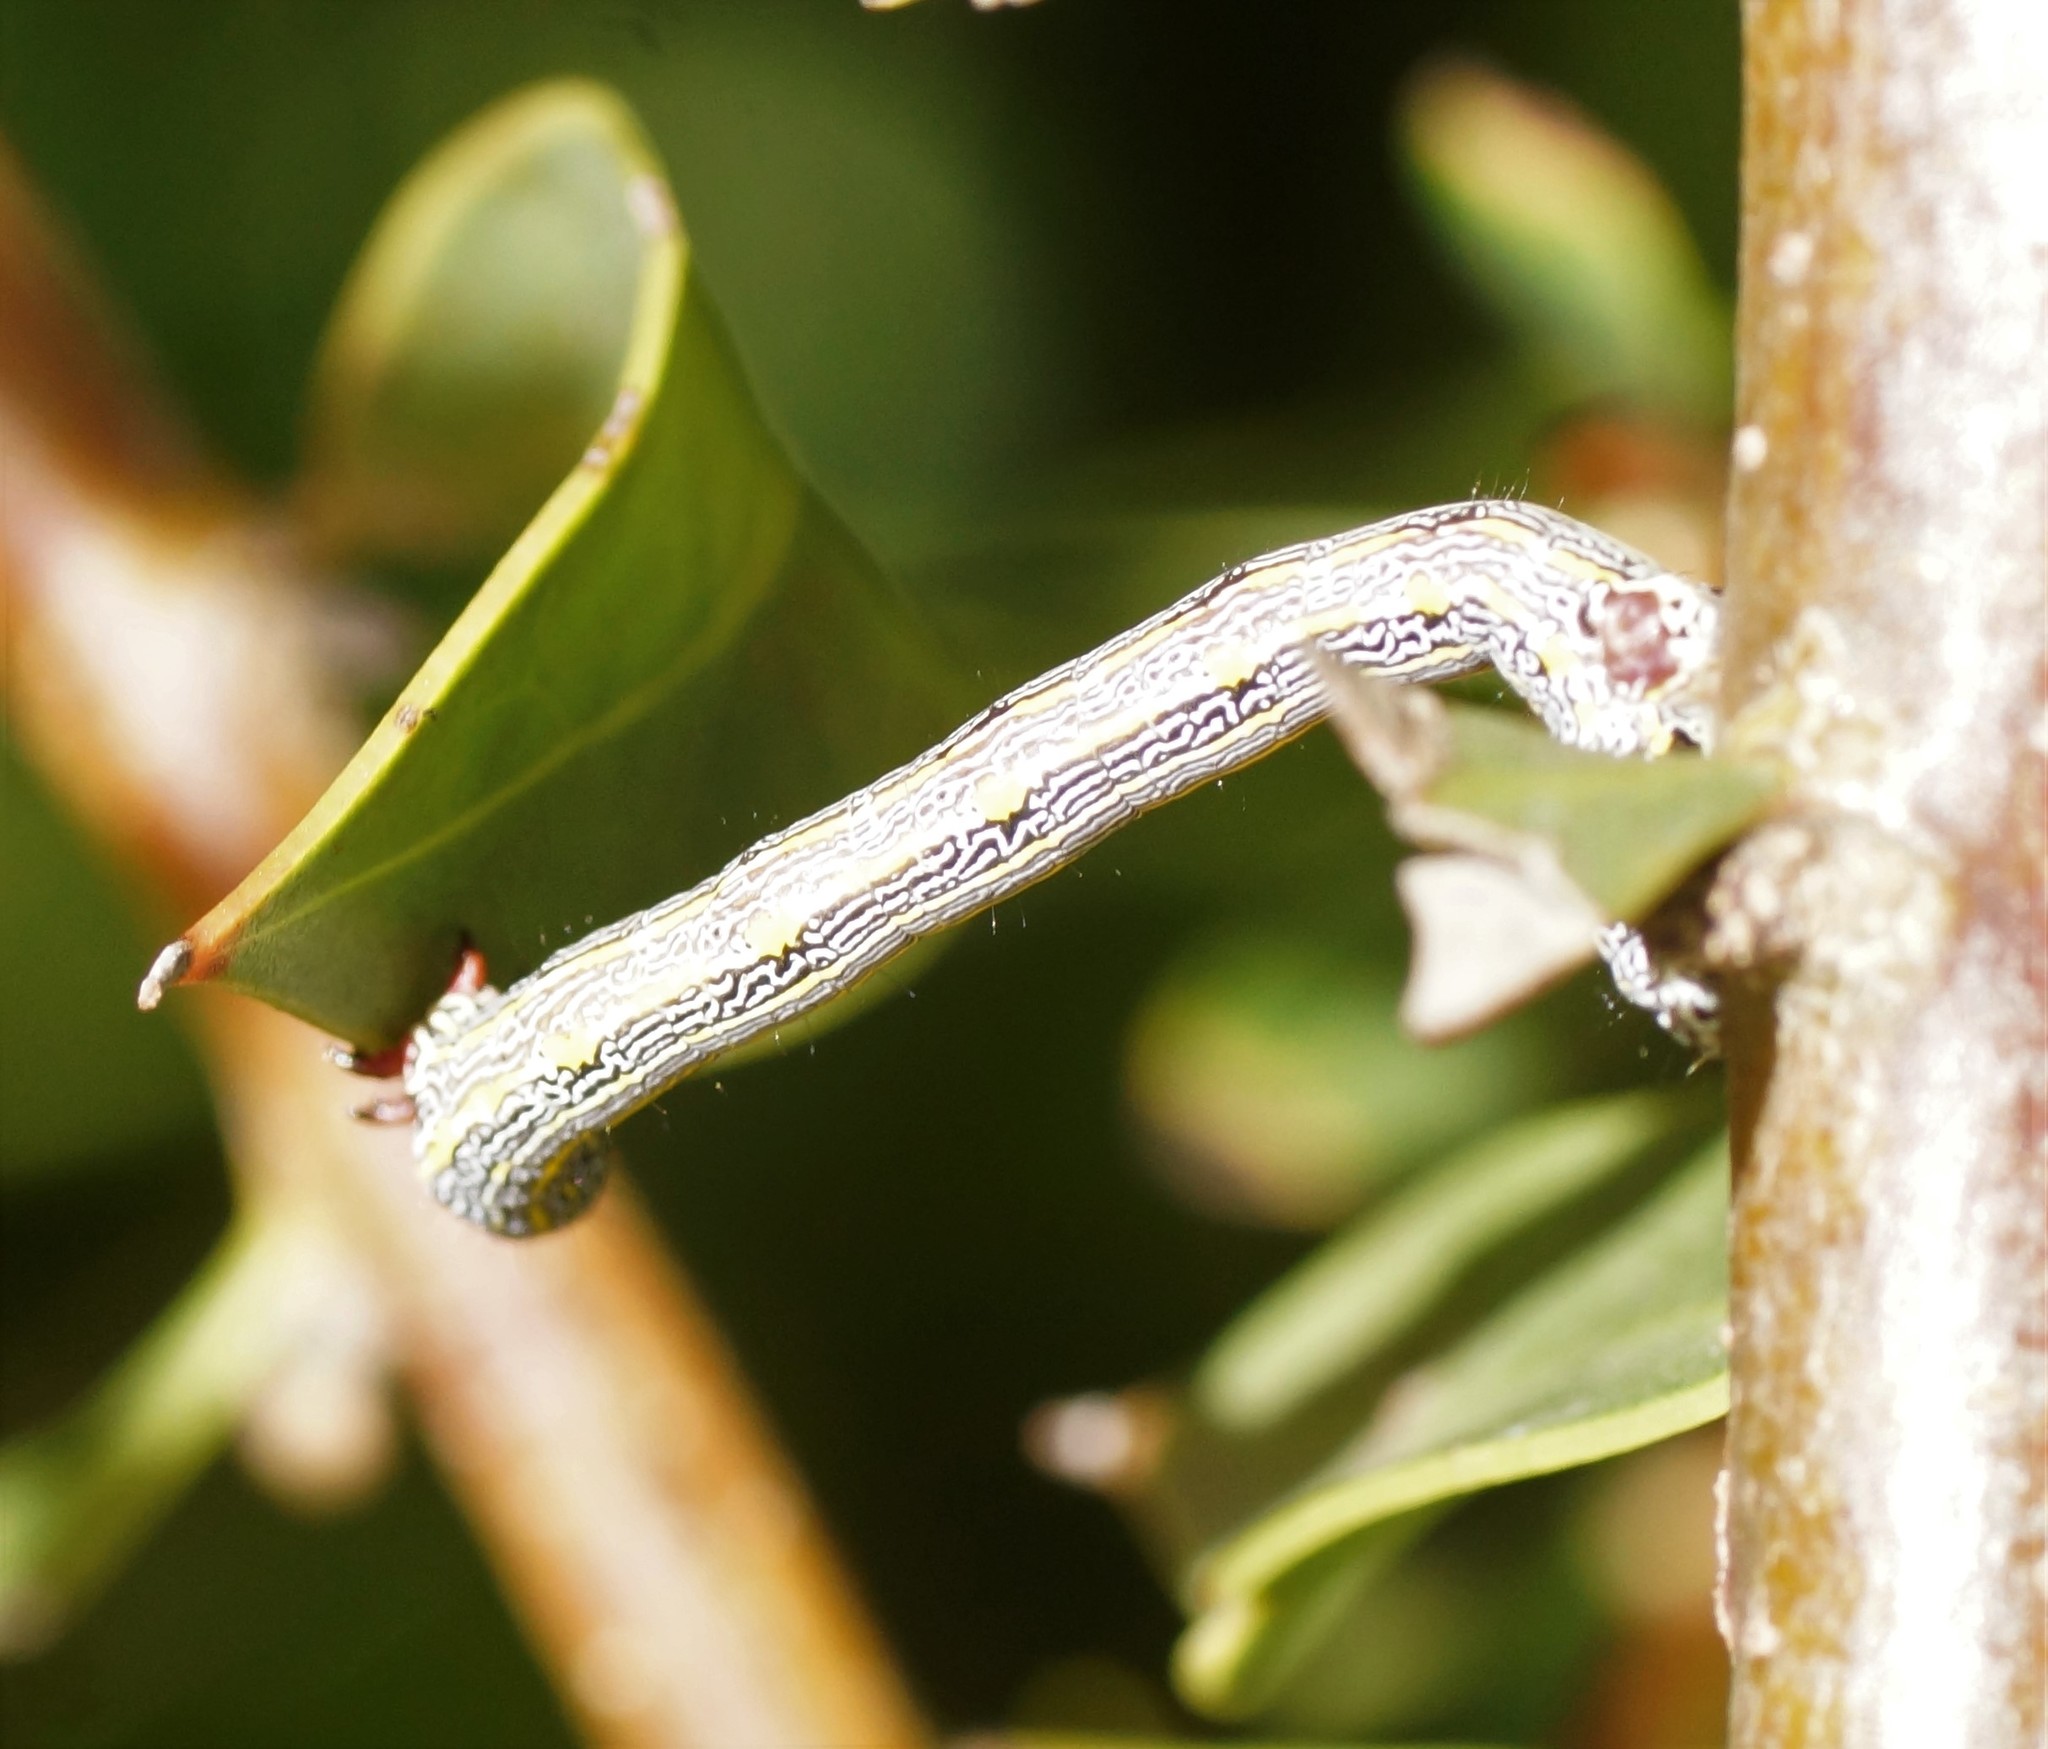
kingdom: Animalia
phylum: Arthropoda
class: Insecta
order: Lepidoptera
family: Geometridae
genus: Chlenias
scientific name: Chlenias banksiaria
